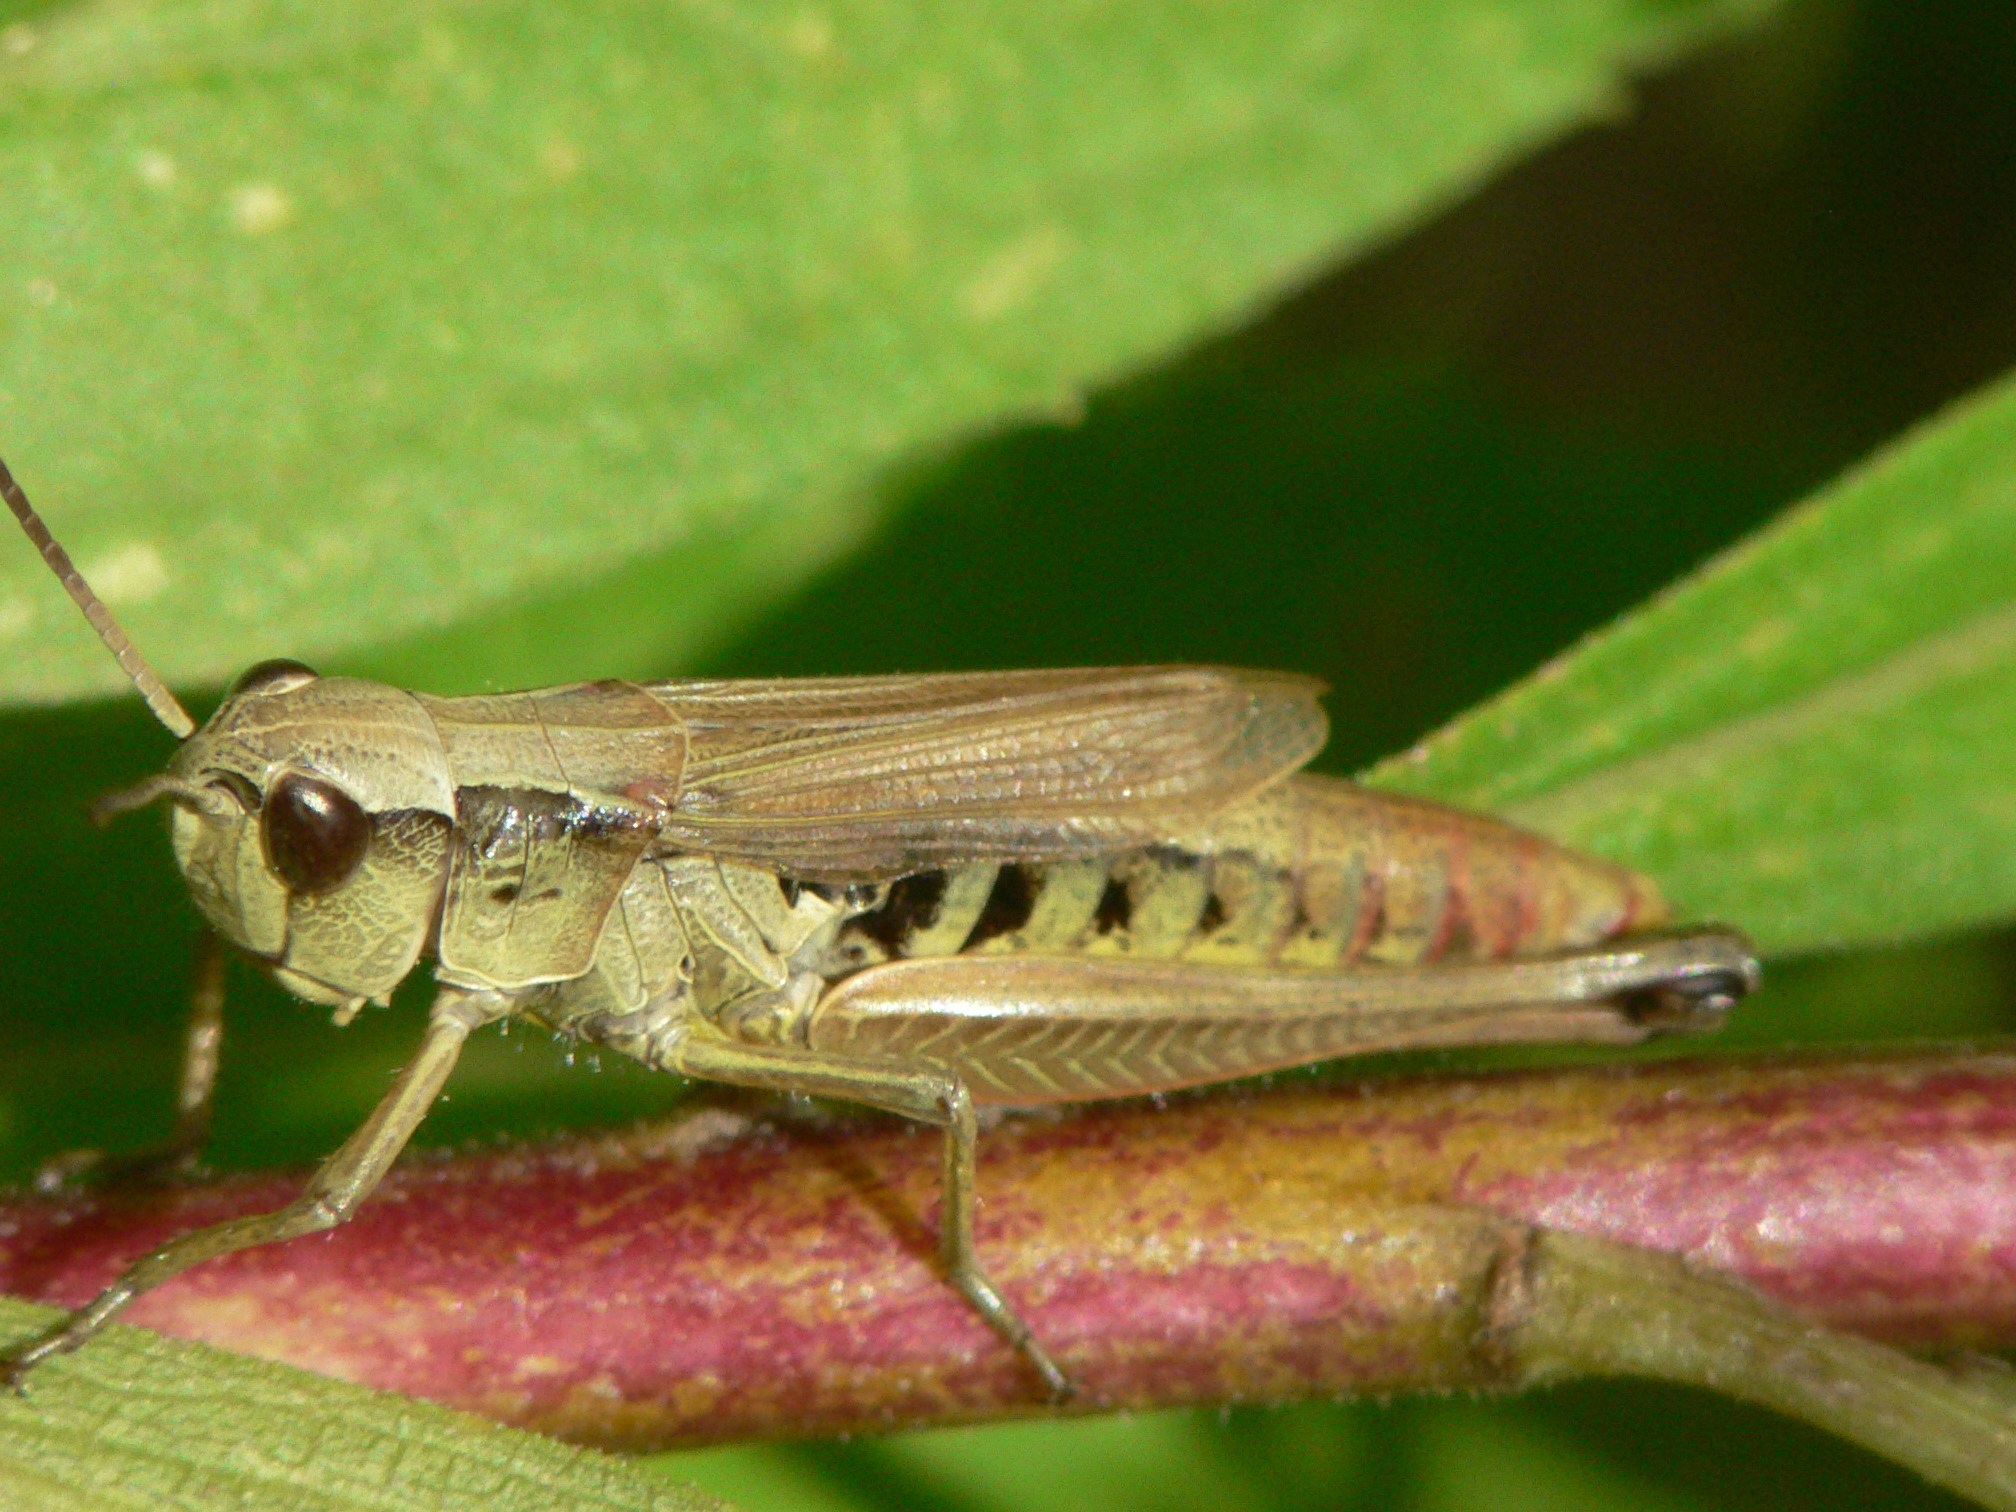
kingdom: Animalia
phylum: Arthropoda
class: Insecta
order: Orthoptera
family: Acrididae
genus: Pseudochorthippus
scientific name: Pseudochorthippus curtipennis
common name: Marsh meadow grasshopper
